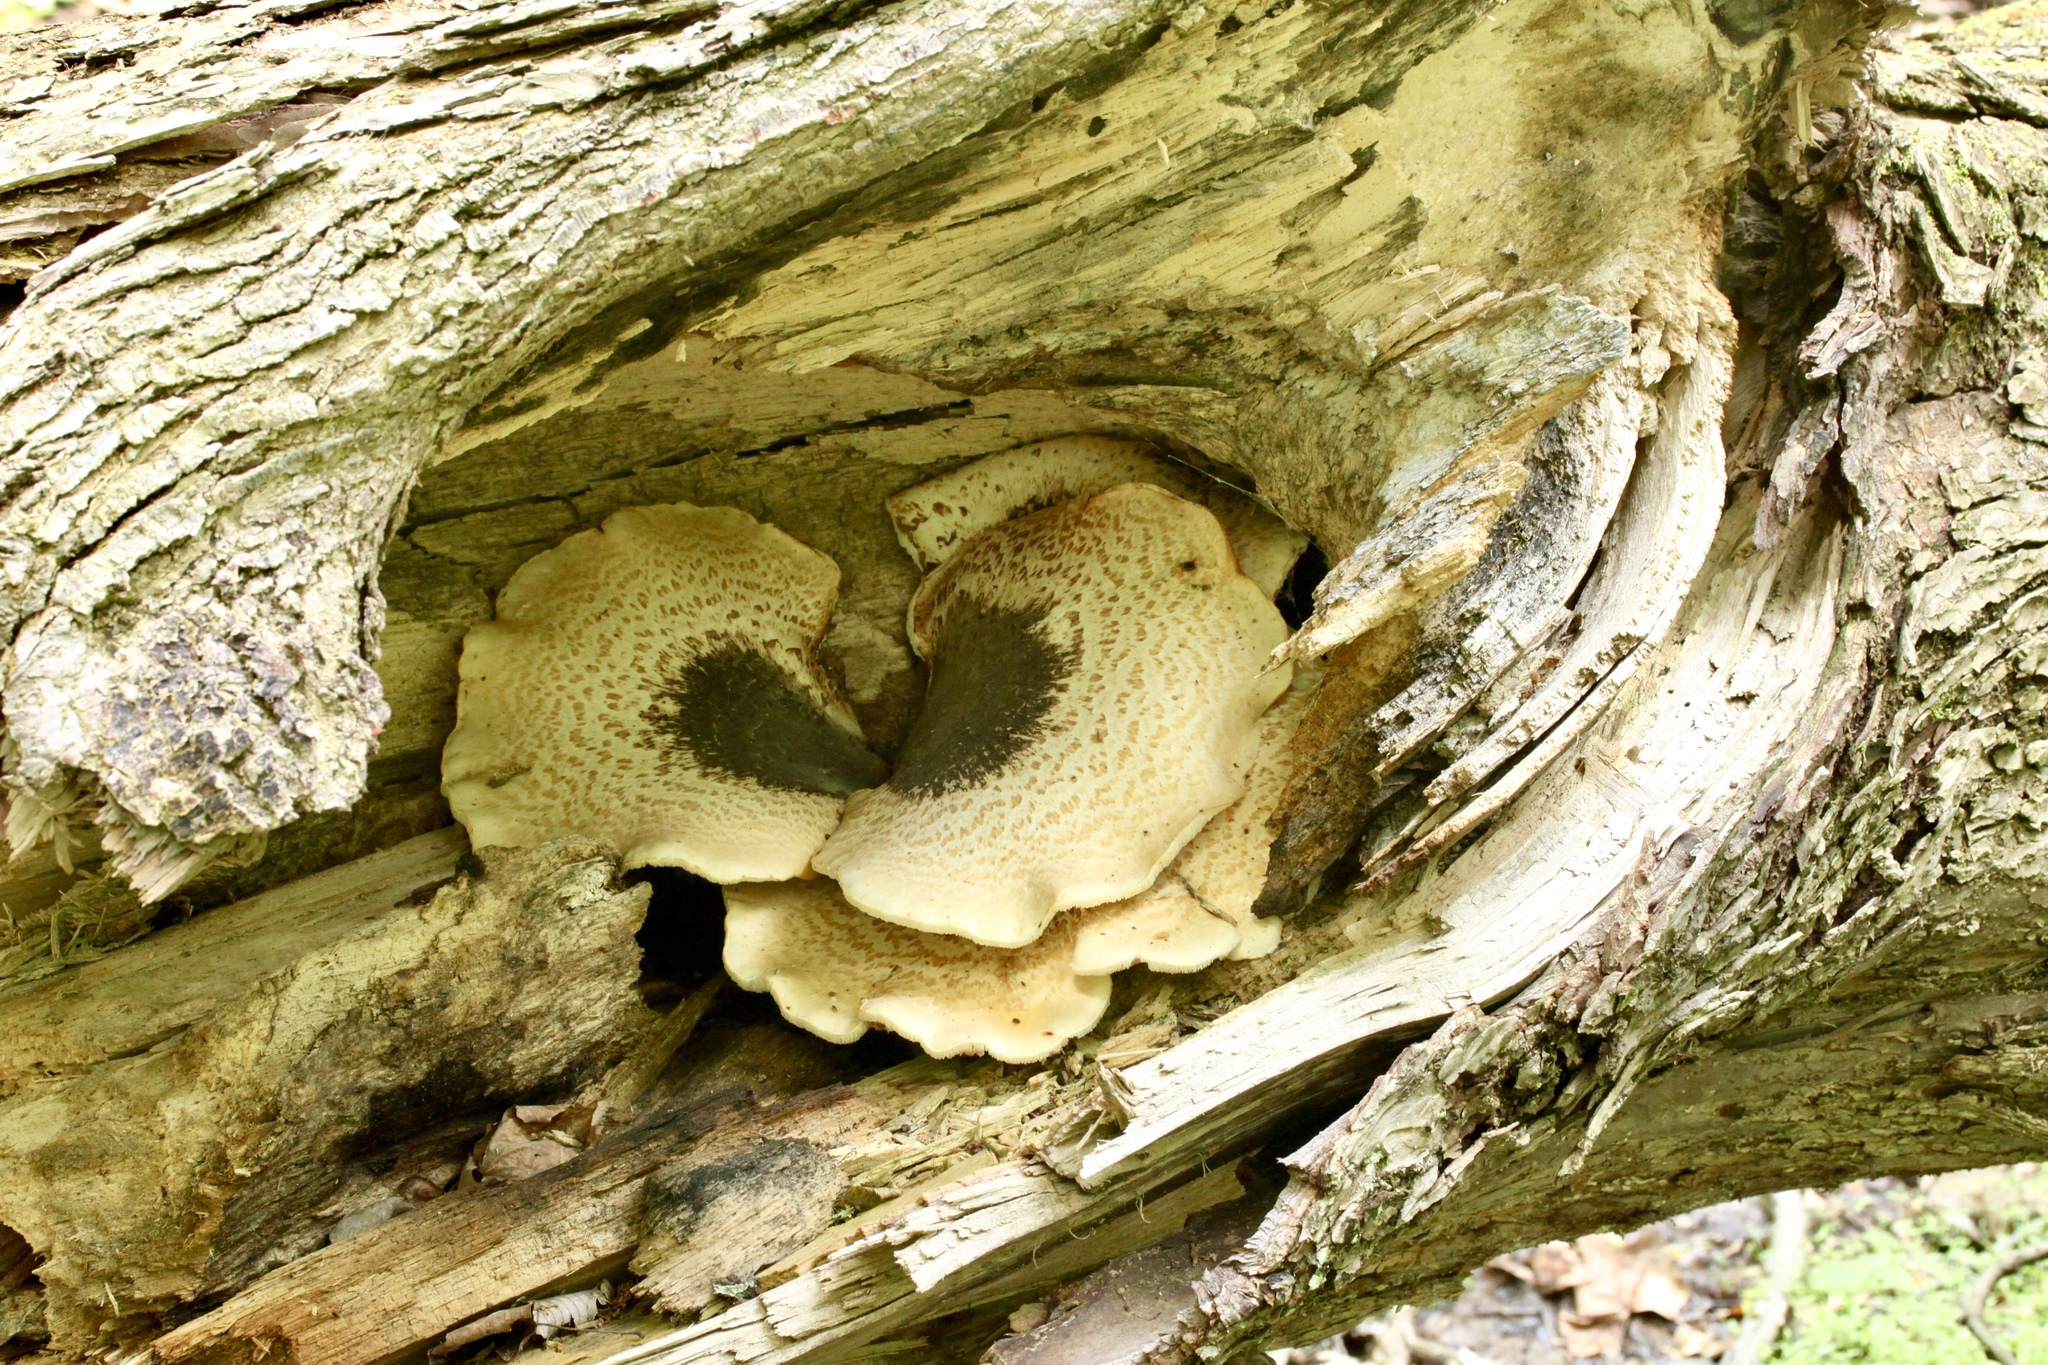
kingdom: Fungi
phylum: Basidiomycota
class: Agaricomycetes
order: Polyporales
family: Polyporaceae
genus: Cerioporus
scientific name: Cerioporus squamosus
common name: Dryad's saddle
